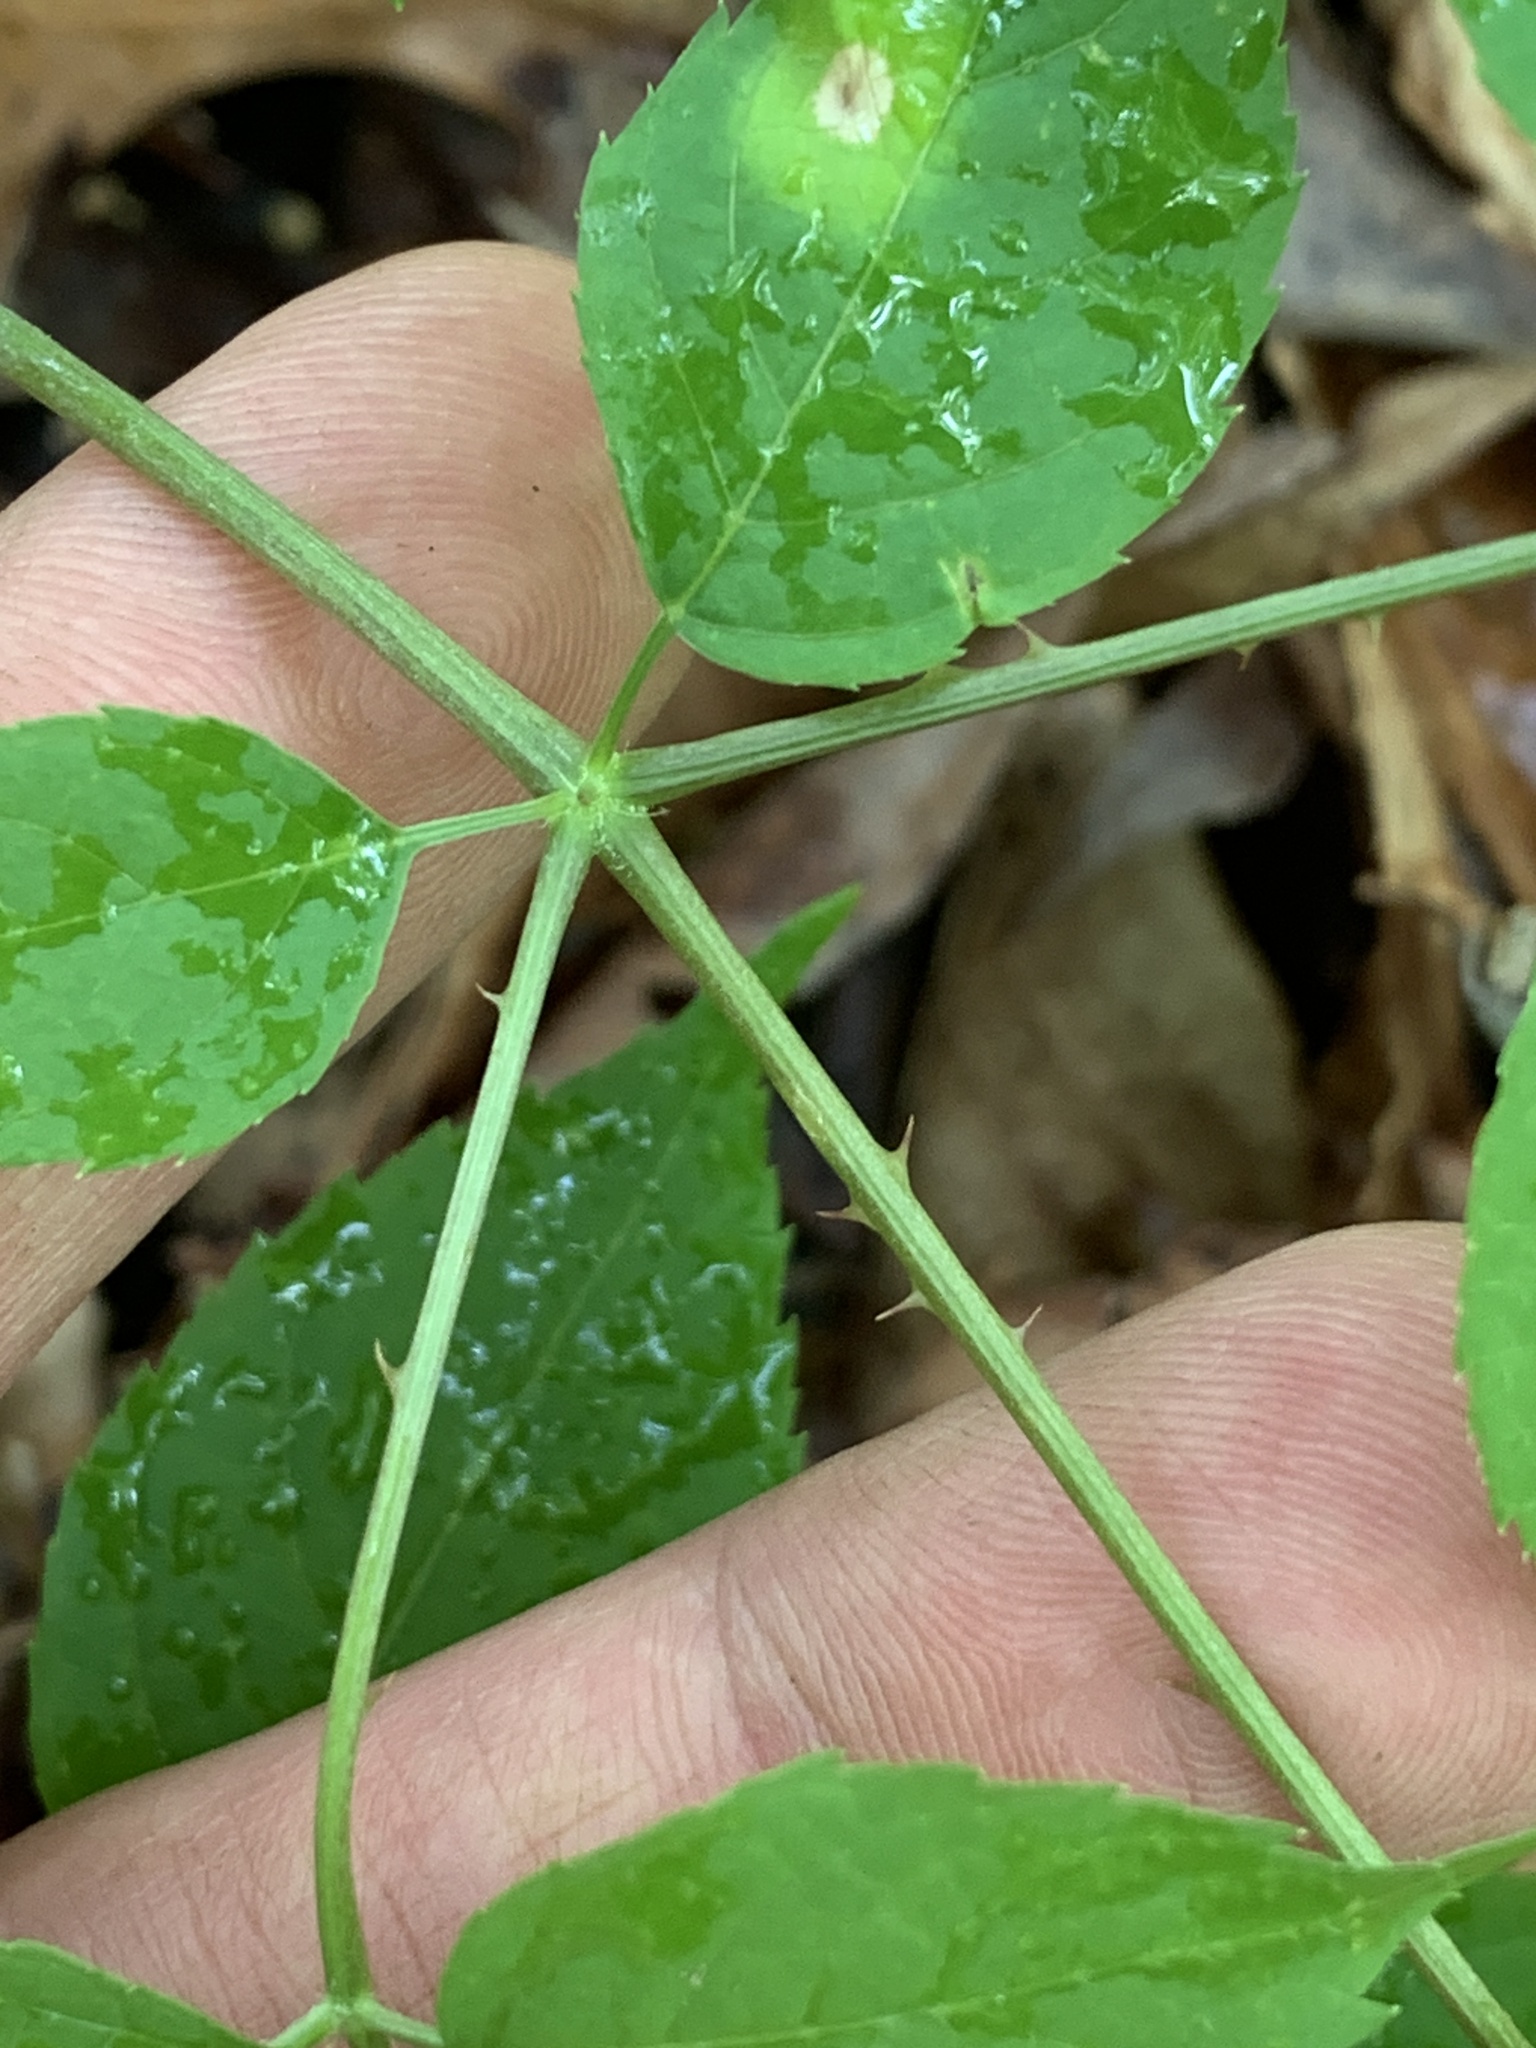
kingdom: Plantae
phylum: Tracheophyta
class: Magnoliopsida
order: Apiales
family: Araliaceae
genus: Aralia
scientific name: Aralia spinosa
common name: Hercules'-club
